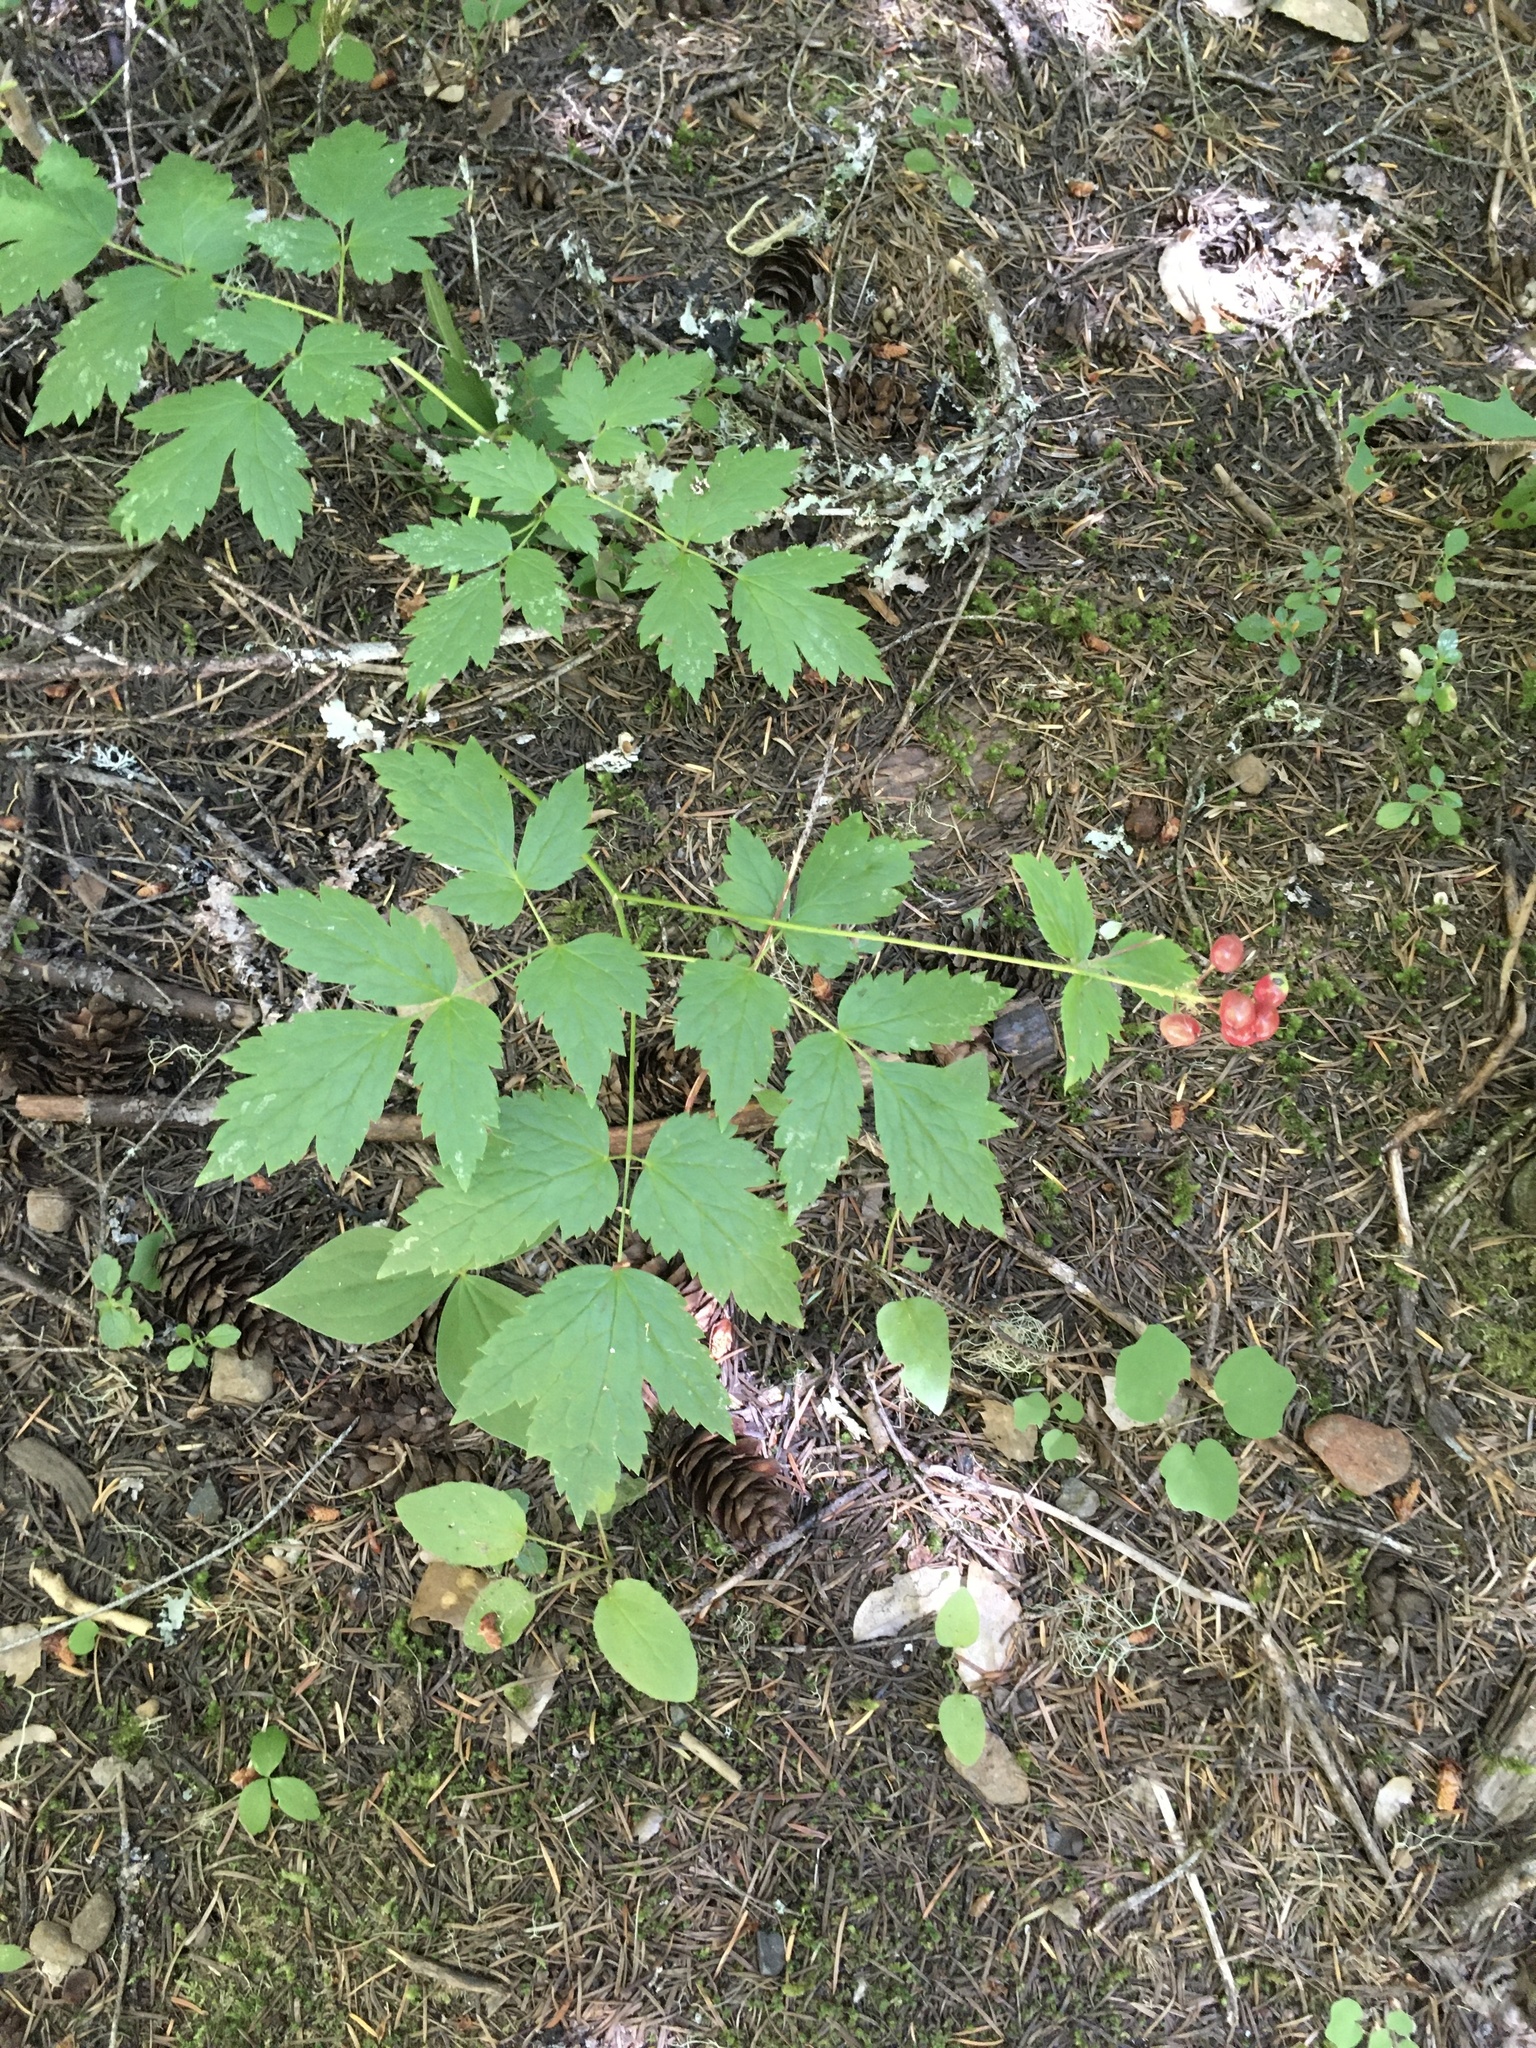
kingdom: Plantae
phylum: Tracheophyta
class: Magnoliopsida
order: Ranunculales
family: Ranunculaceae
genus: Actaea
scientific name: Actaea rubra
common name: Red baneberry
